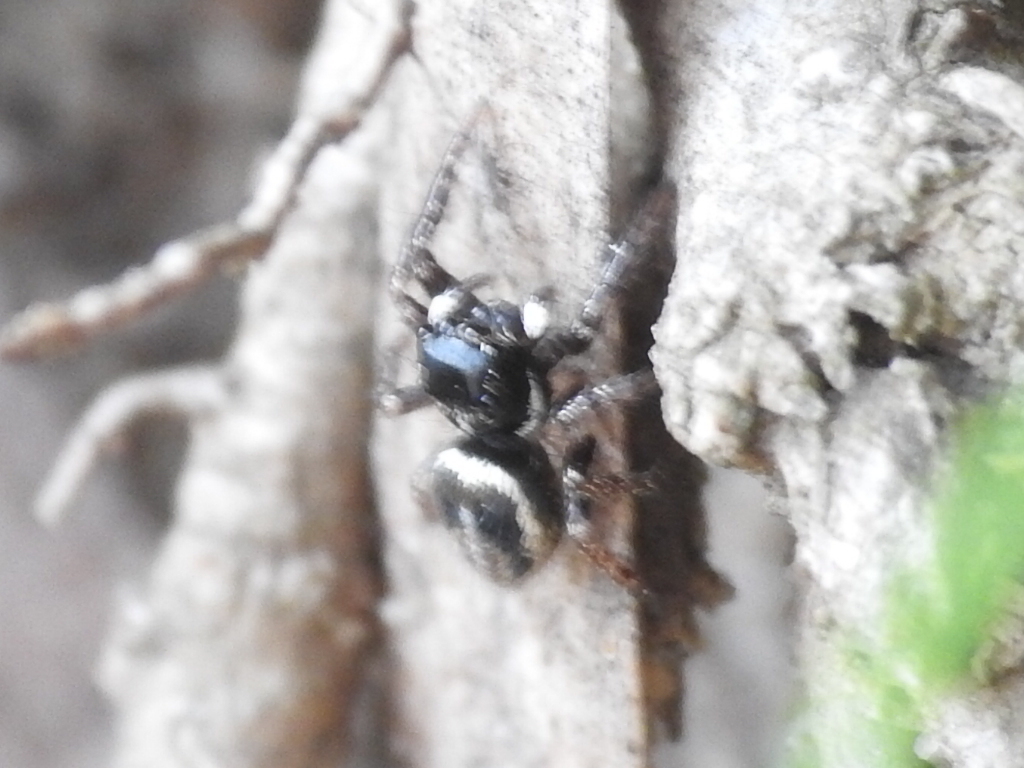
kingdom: Animalia
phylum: Arthropoda
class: Arachnida
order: Araneae
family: Salticidae
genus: Anasaitis
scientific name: Anasaitis canosa
